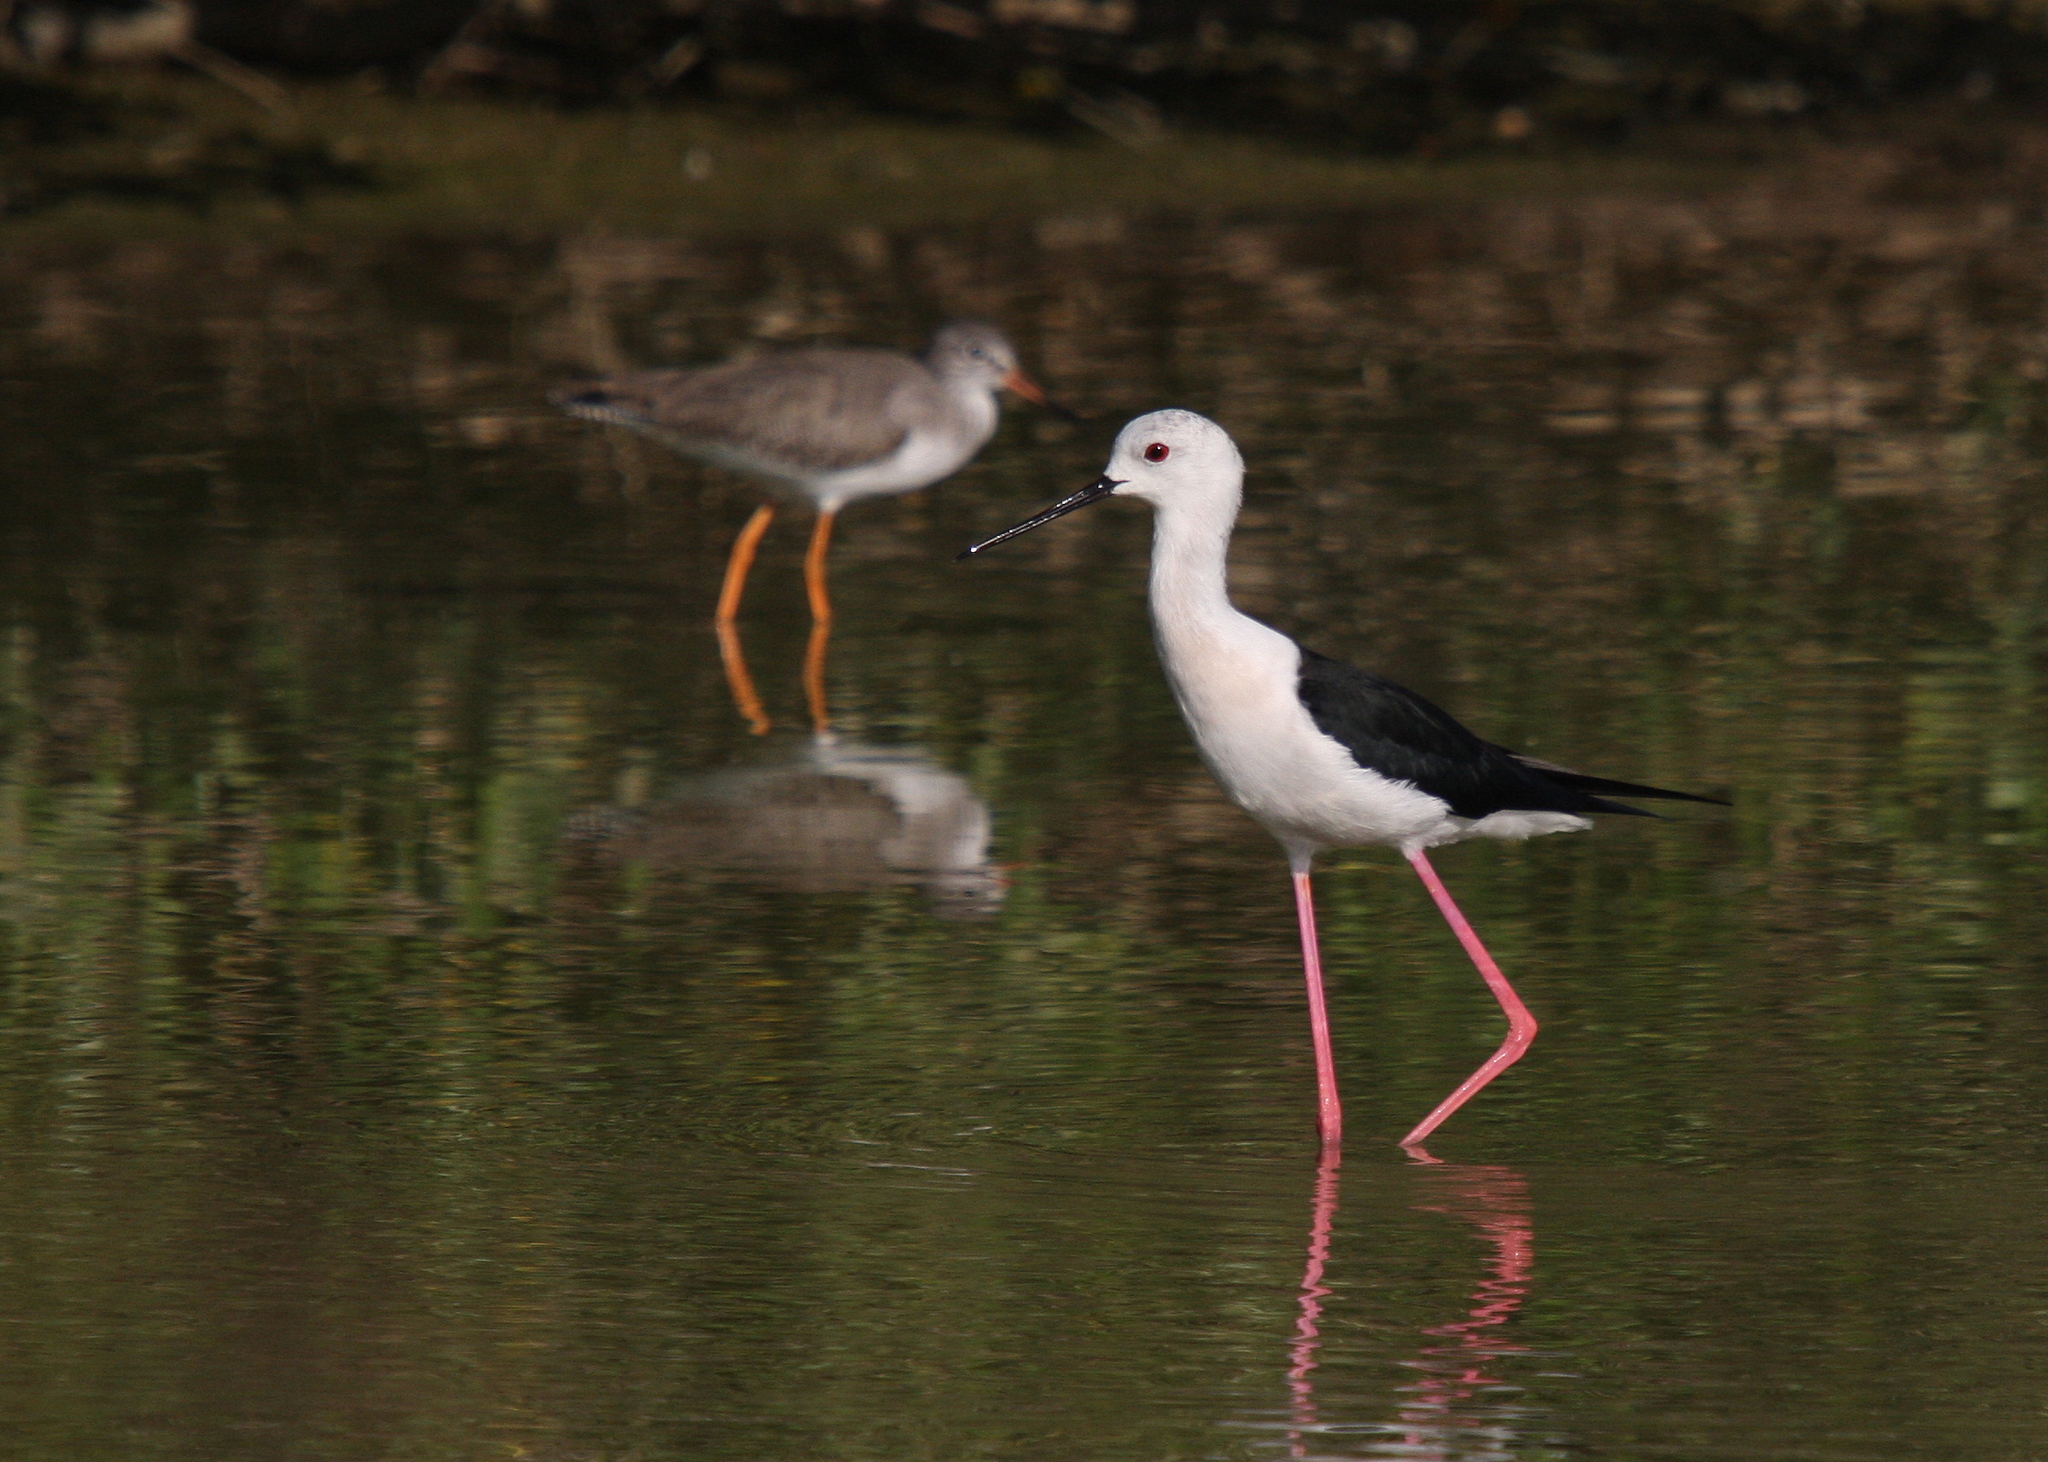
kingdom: Animalia
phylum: Chordata
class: Aves
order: Charadriiformes
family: Recurvirostridae
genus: Himantopus
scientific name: Himantopus himantopus
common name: Black-winged stilt
